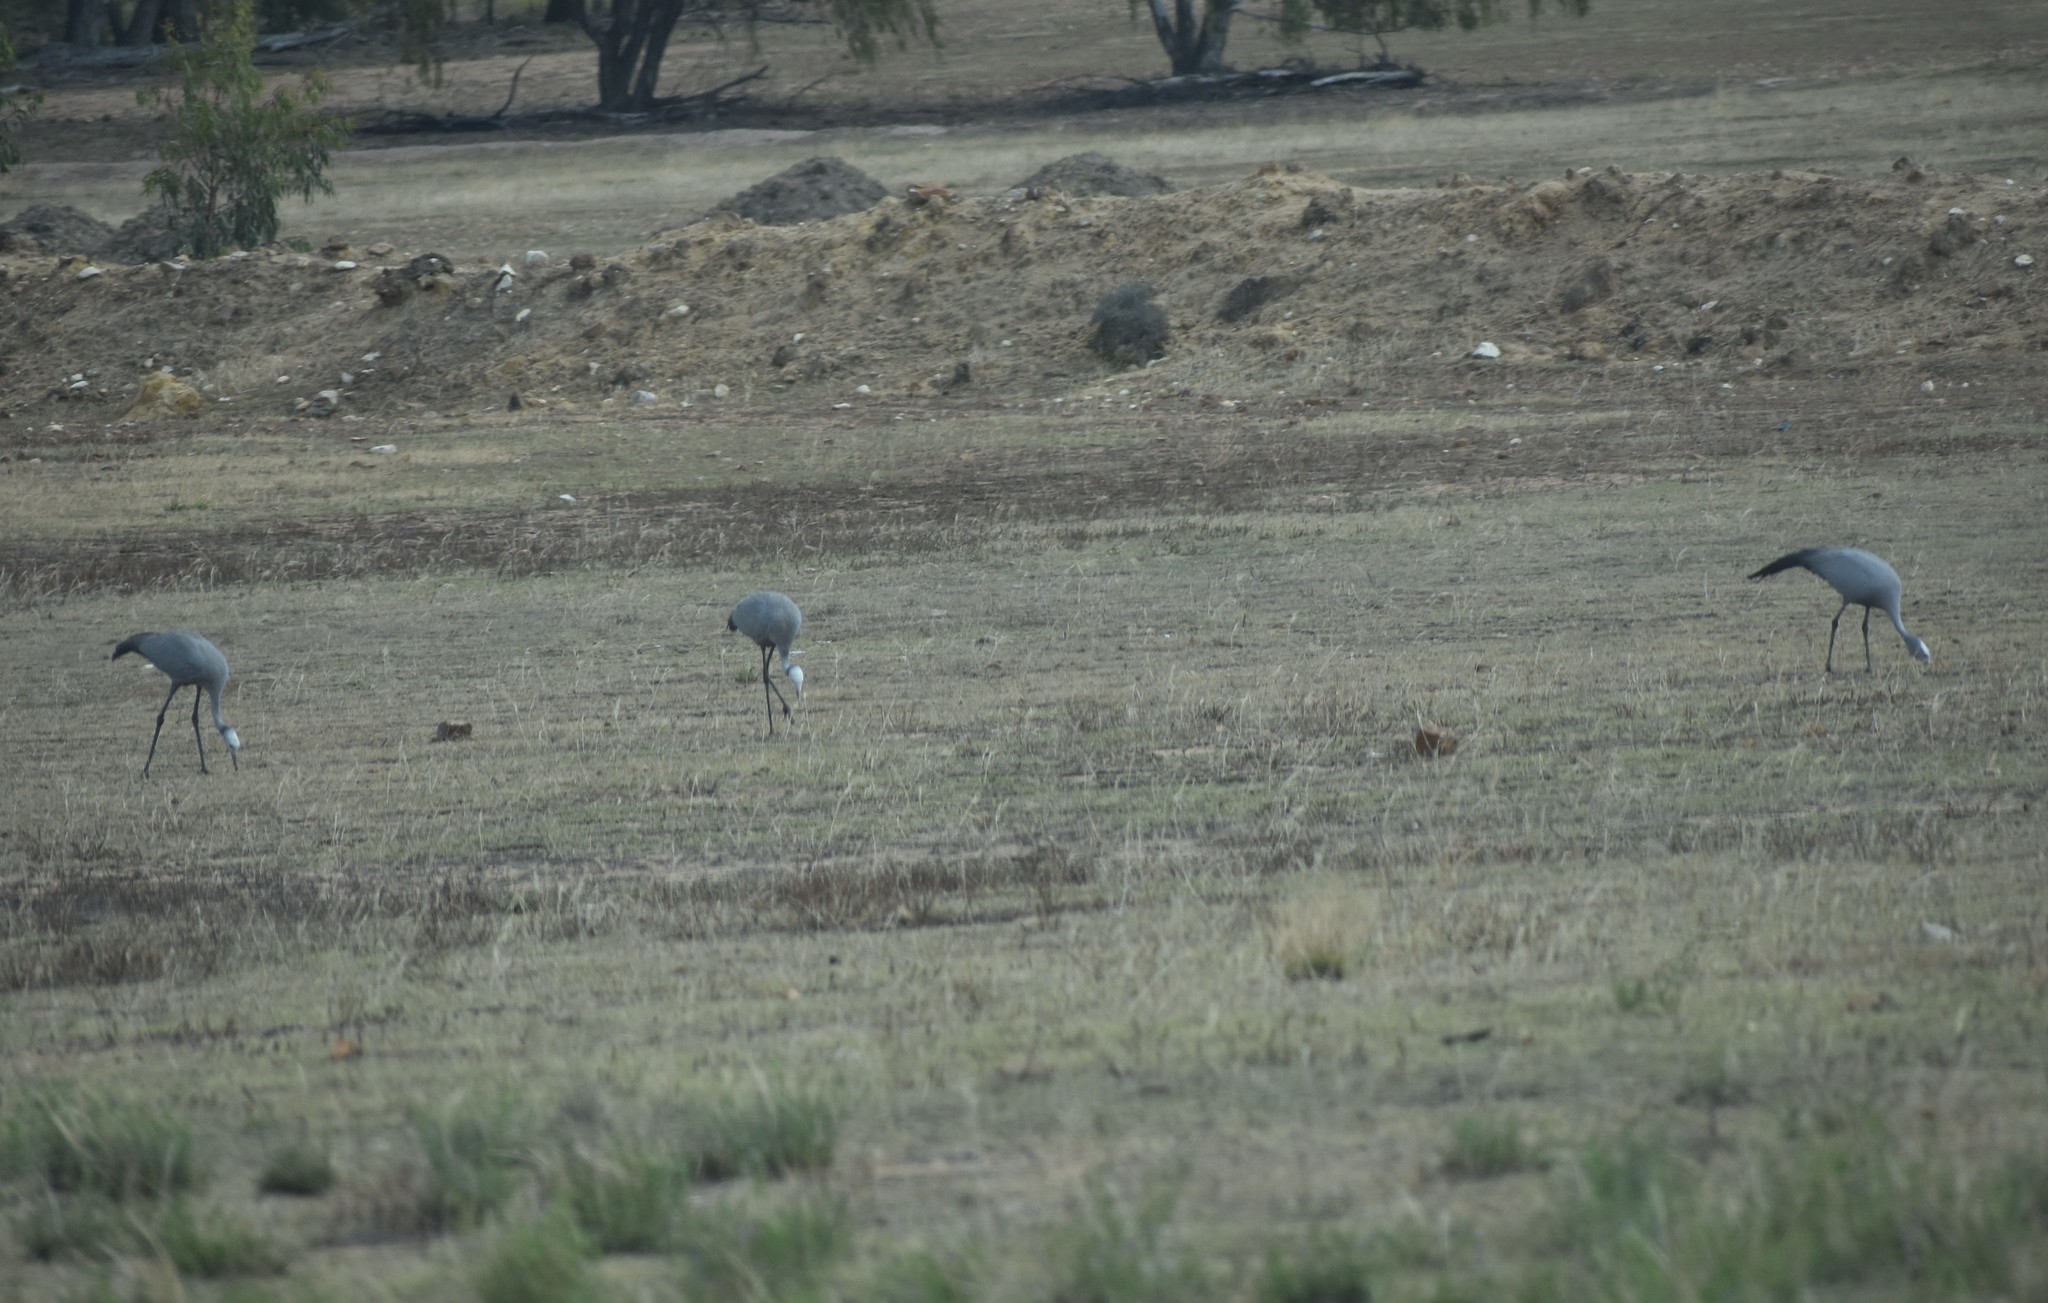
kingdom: Animalia
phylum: Chordata
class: Aves
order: Gruiformes
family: Gruidae
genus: Anthropoides
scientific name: Anthropoides paradiseus
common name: Blue crane
